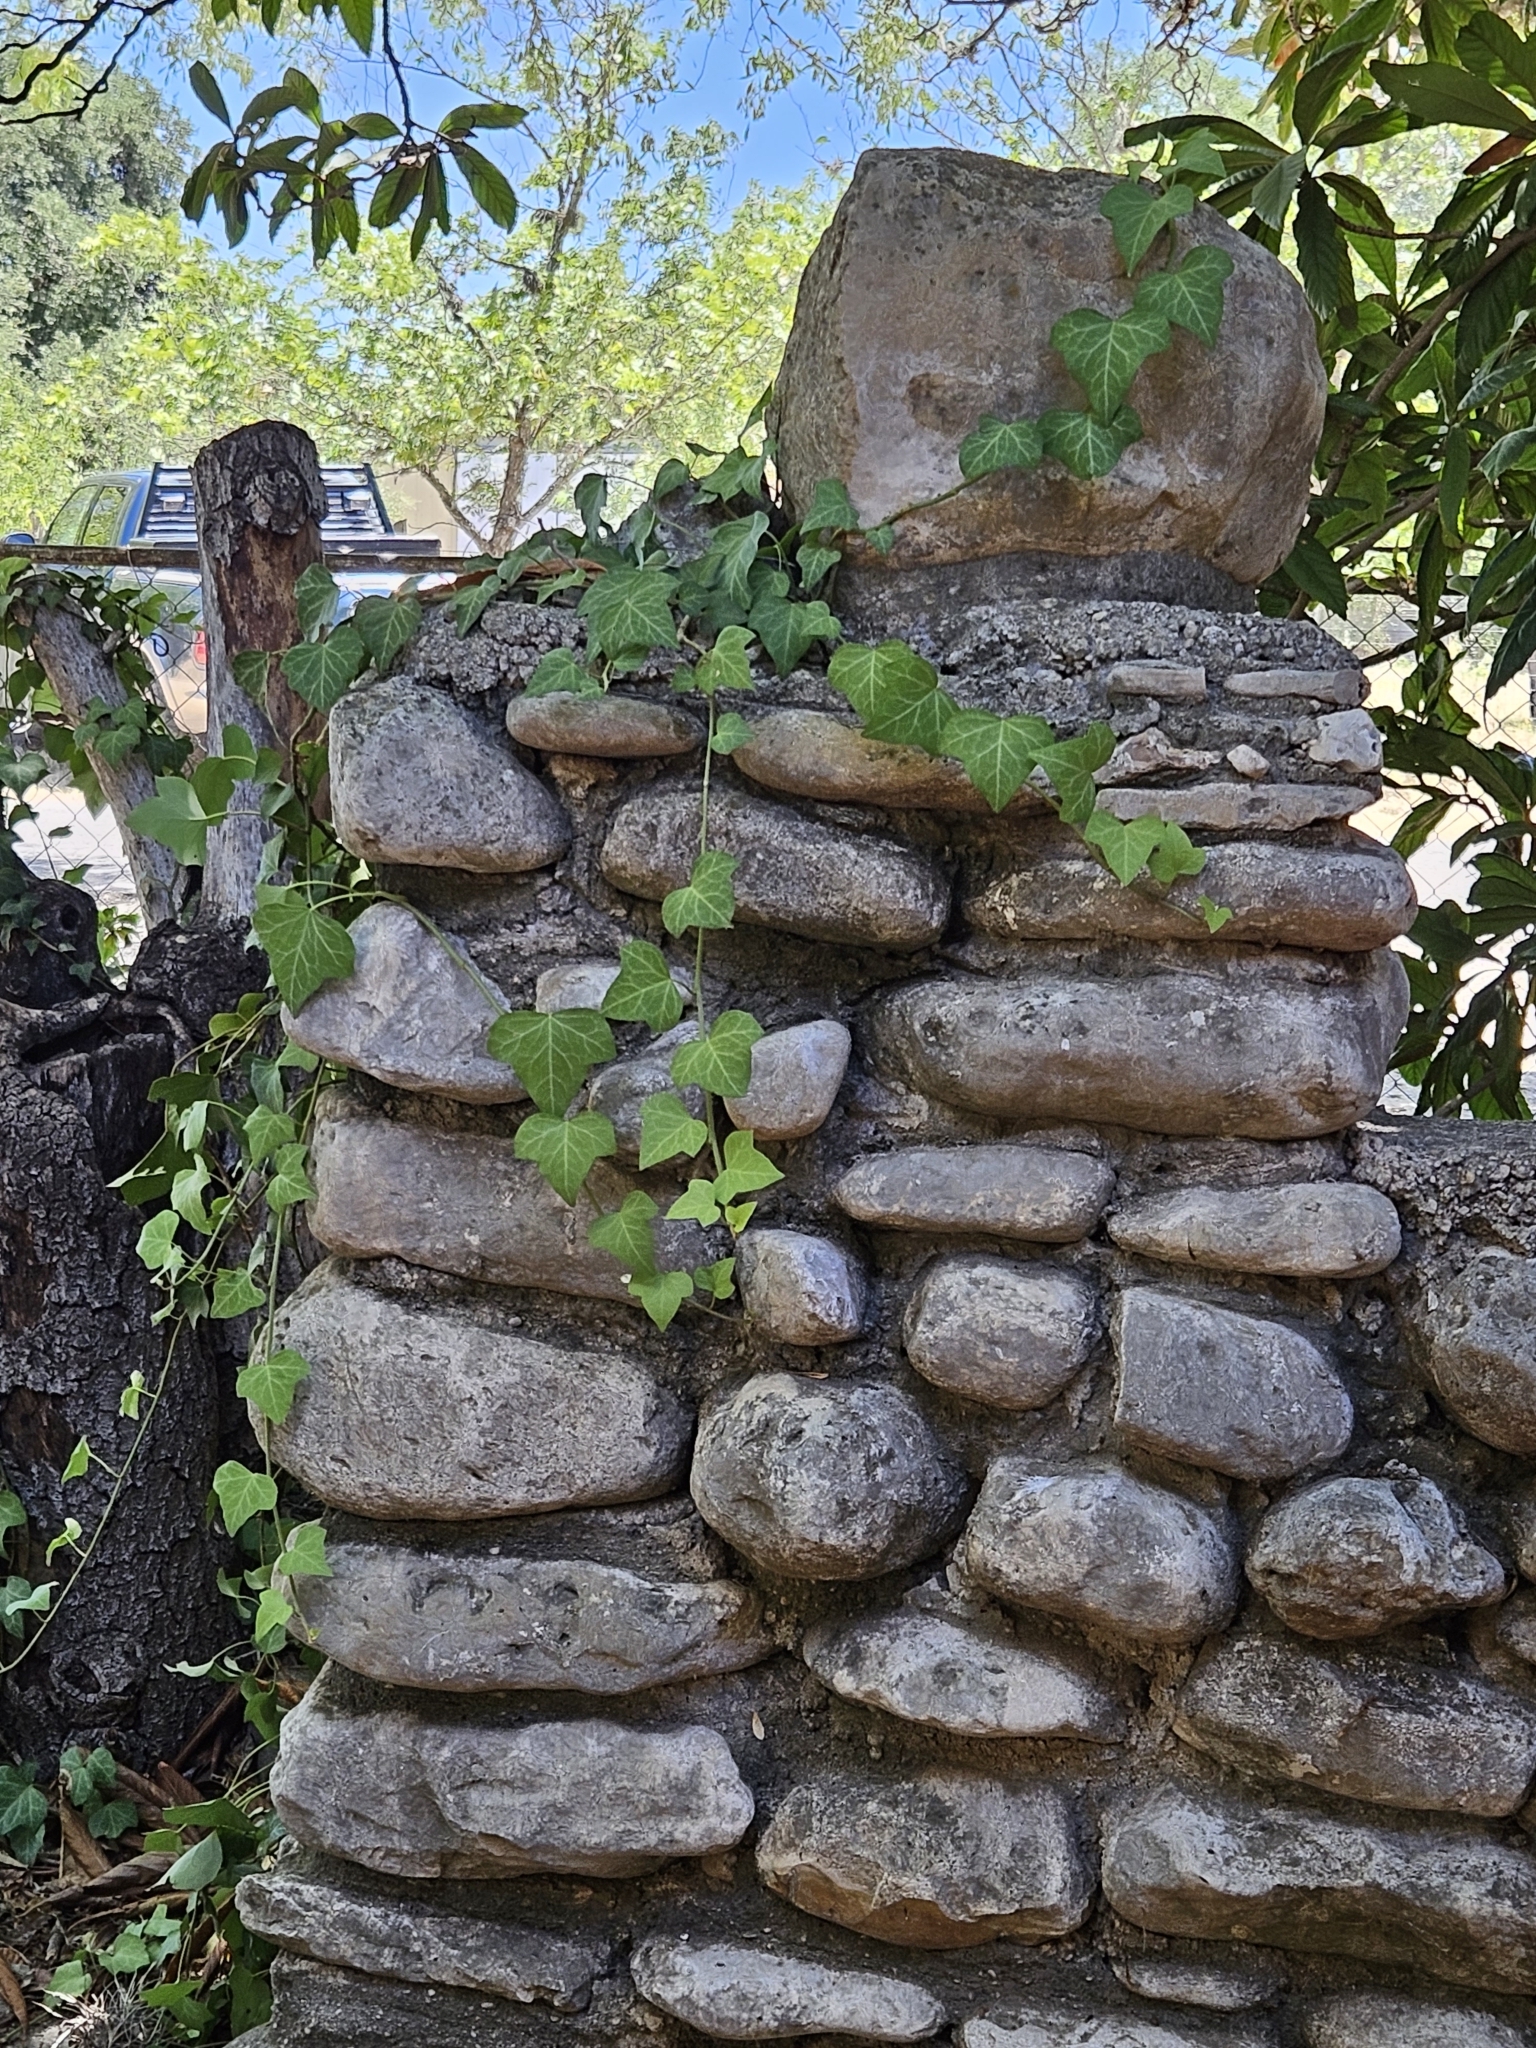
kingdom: Plantae
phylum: Tracheophyta
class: Magnoliopsida
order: Apiales
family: Araliaceae
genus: Hedera
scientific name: Hedera helix
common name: Ivy
